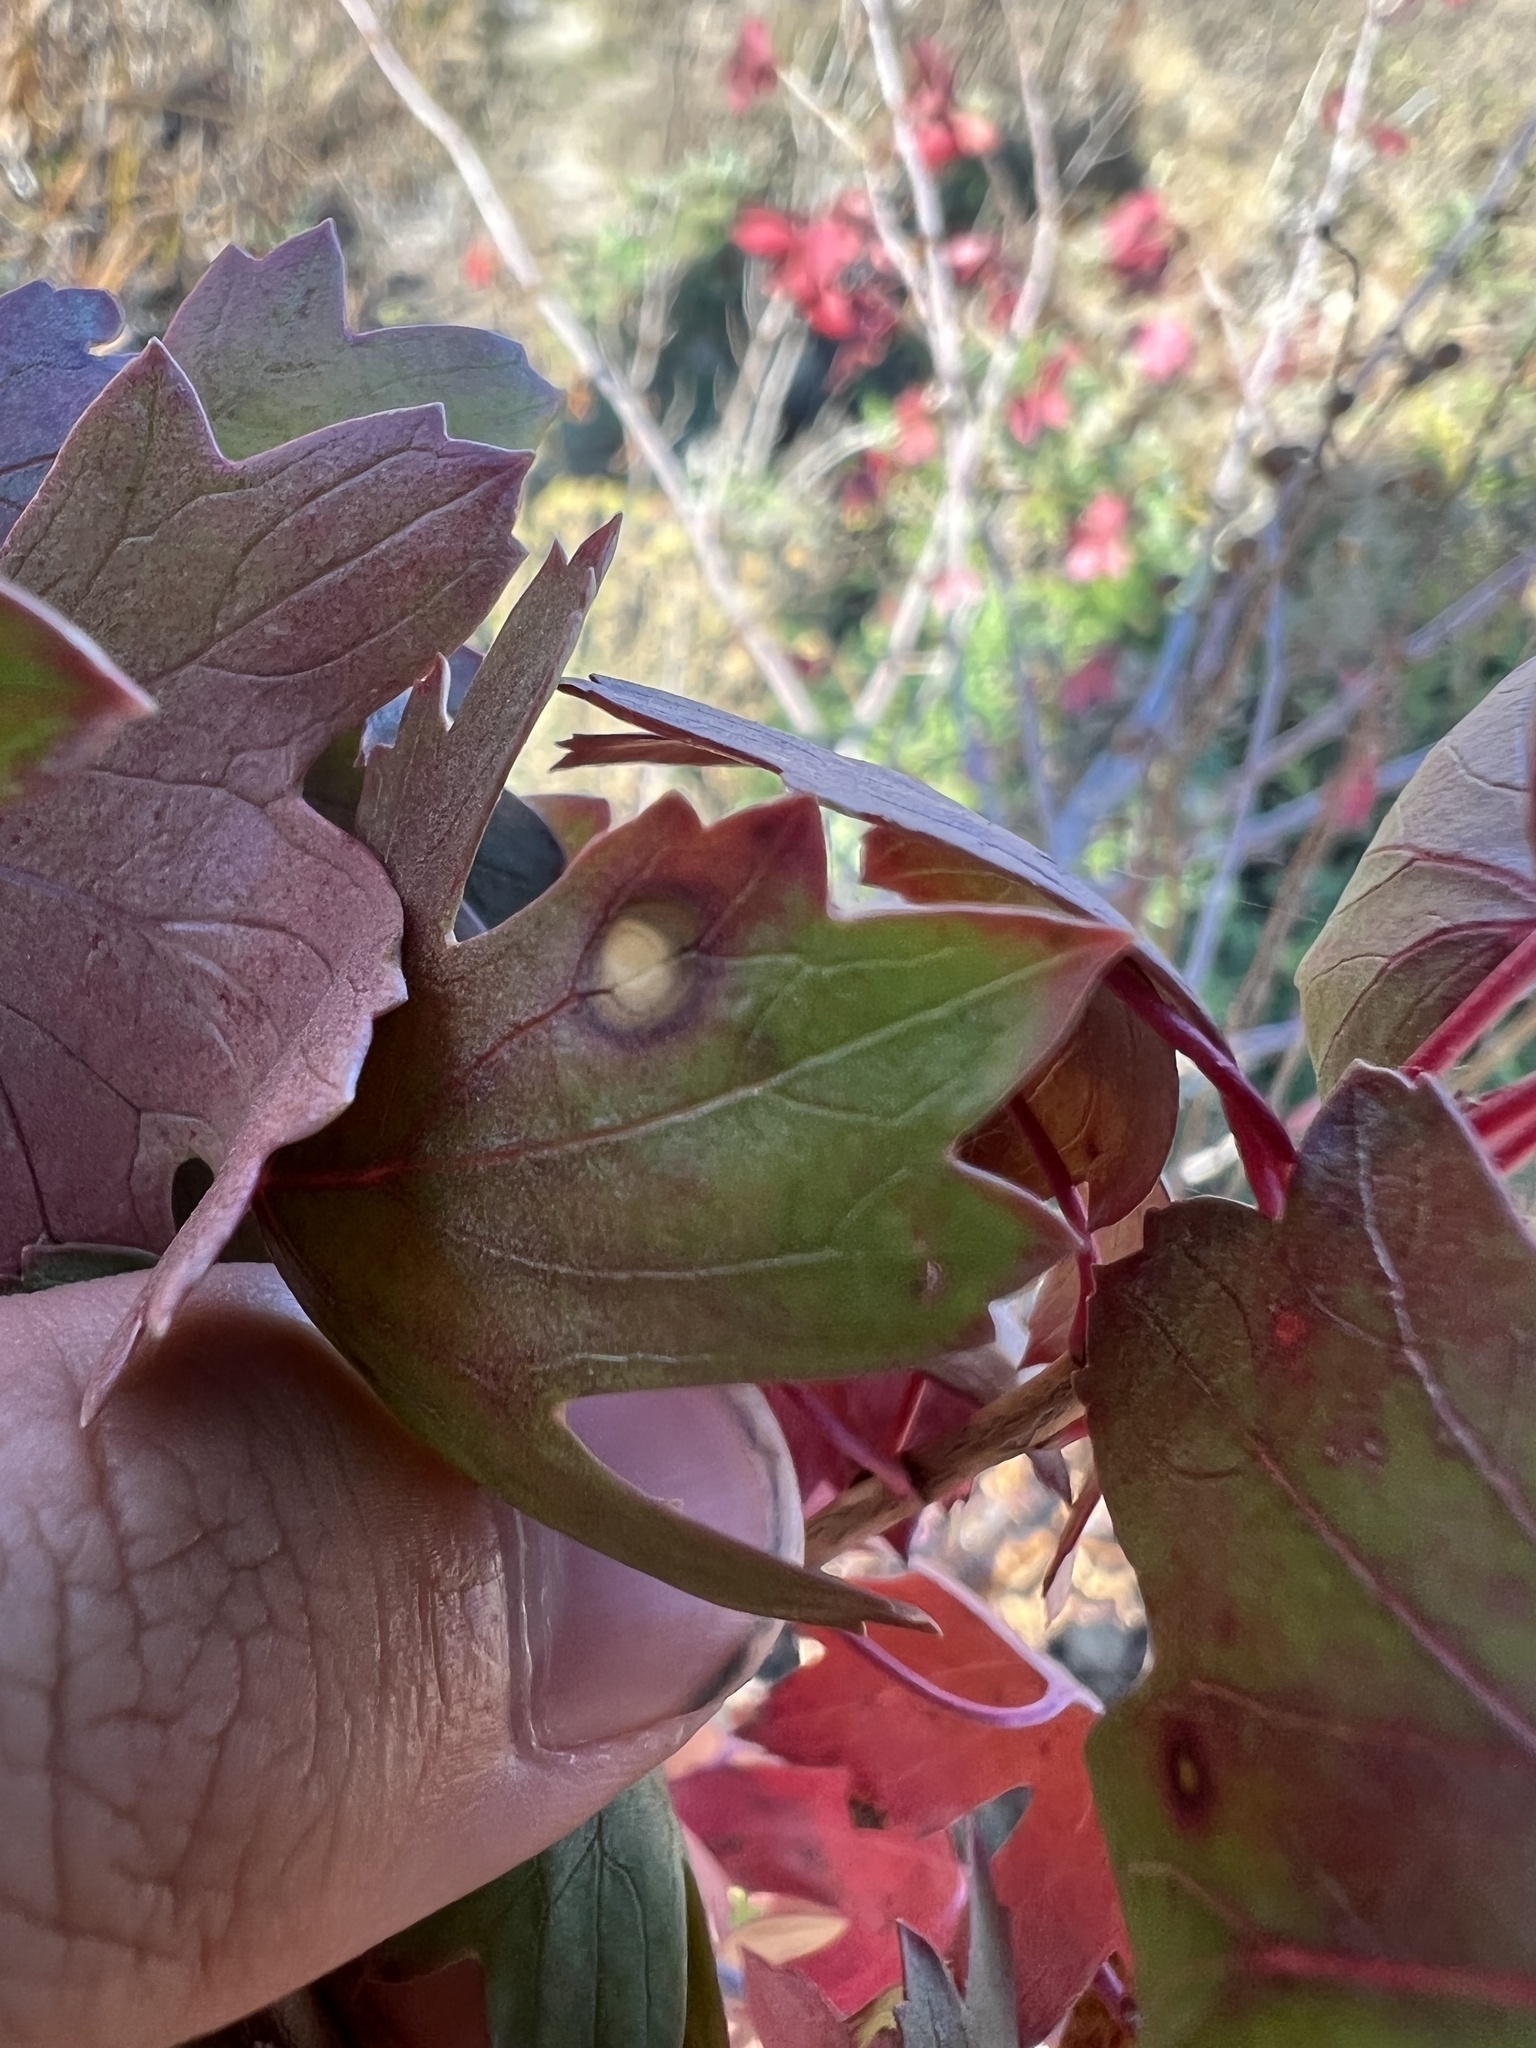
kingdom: Plantae
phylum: Tracheophyta
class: Magnoliopsida
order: Saxifragales
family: Grossulariaceae
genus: Ribes
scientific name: Ribes aureum
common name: Golden currant
